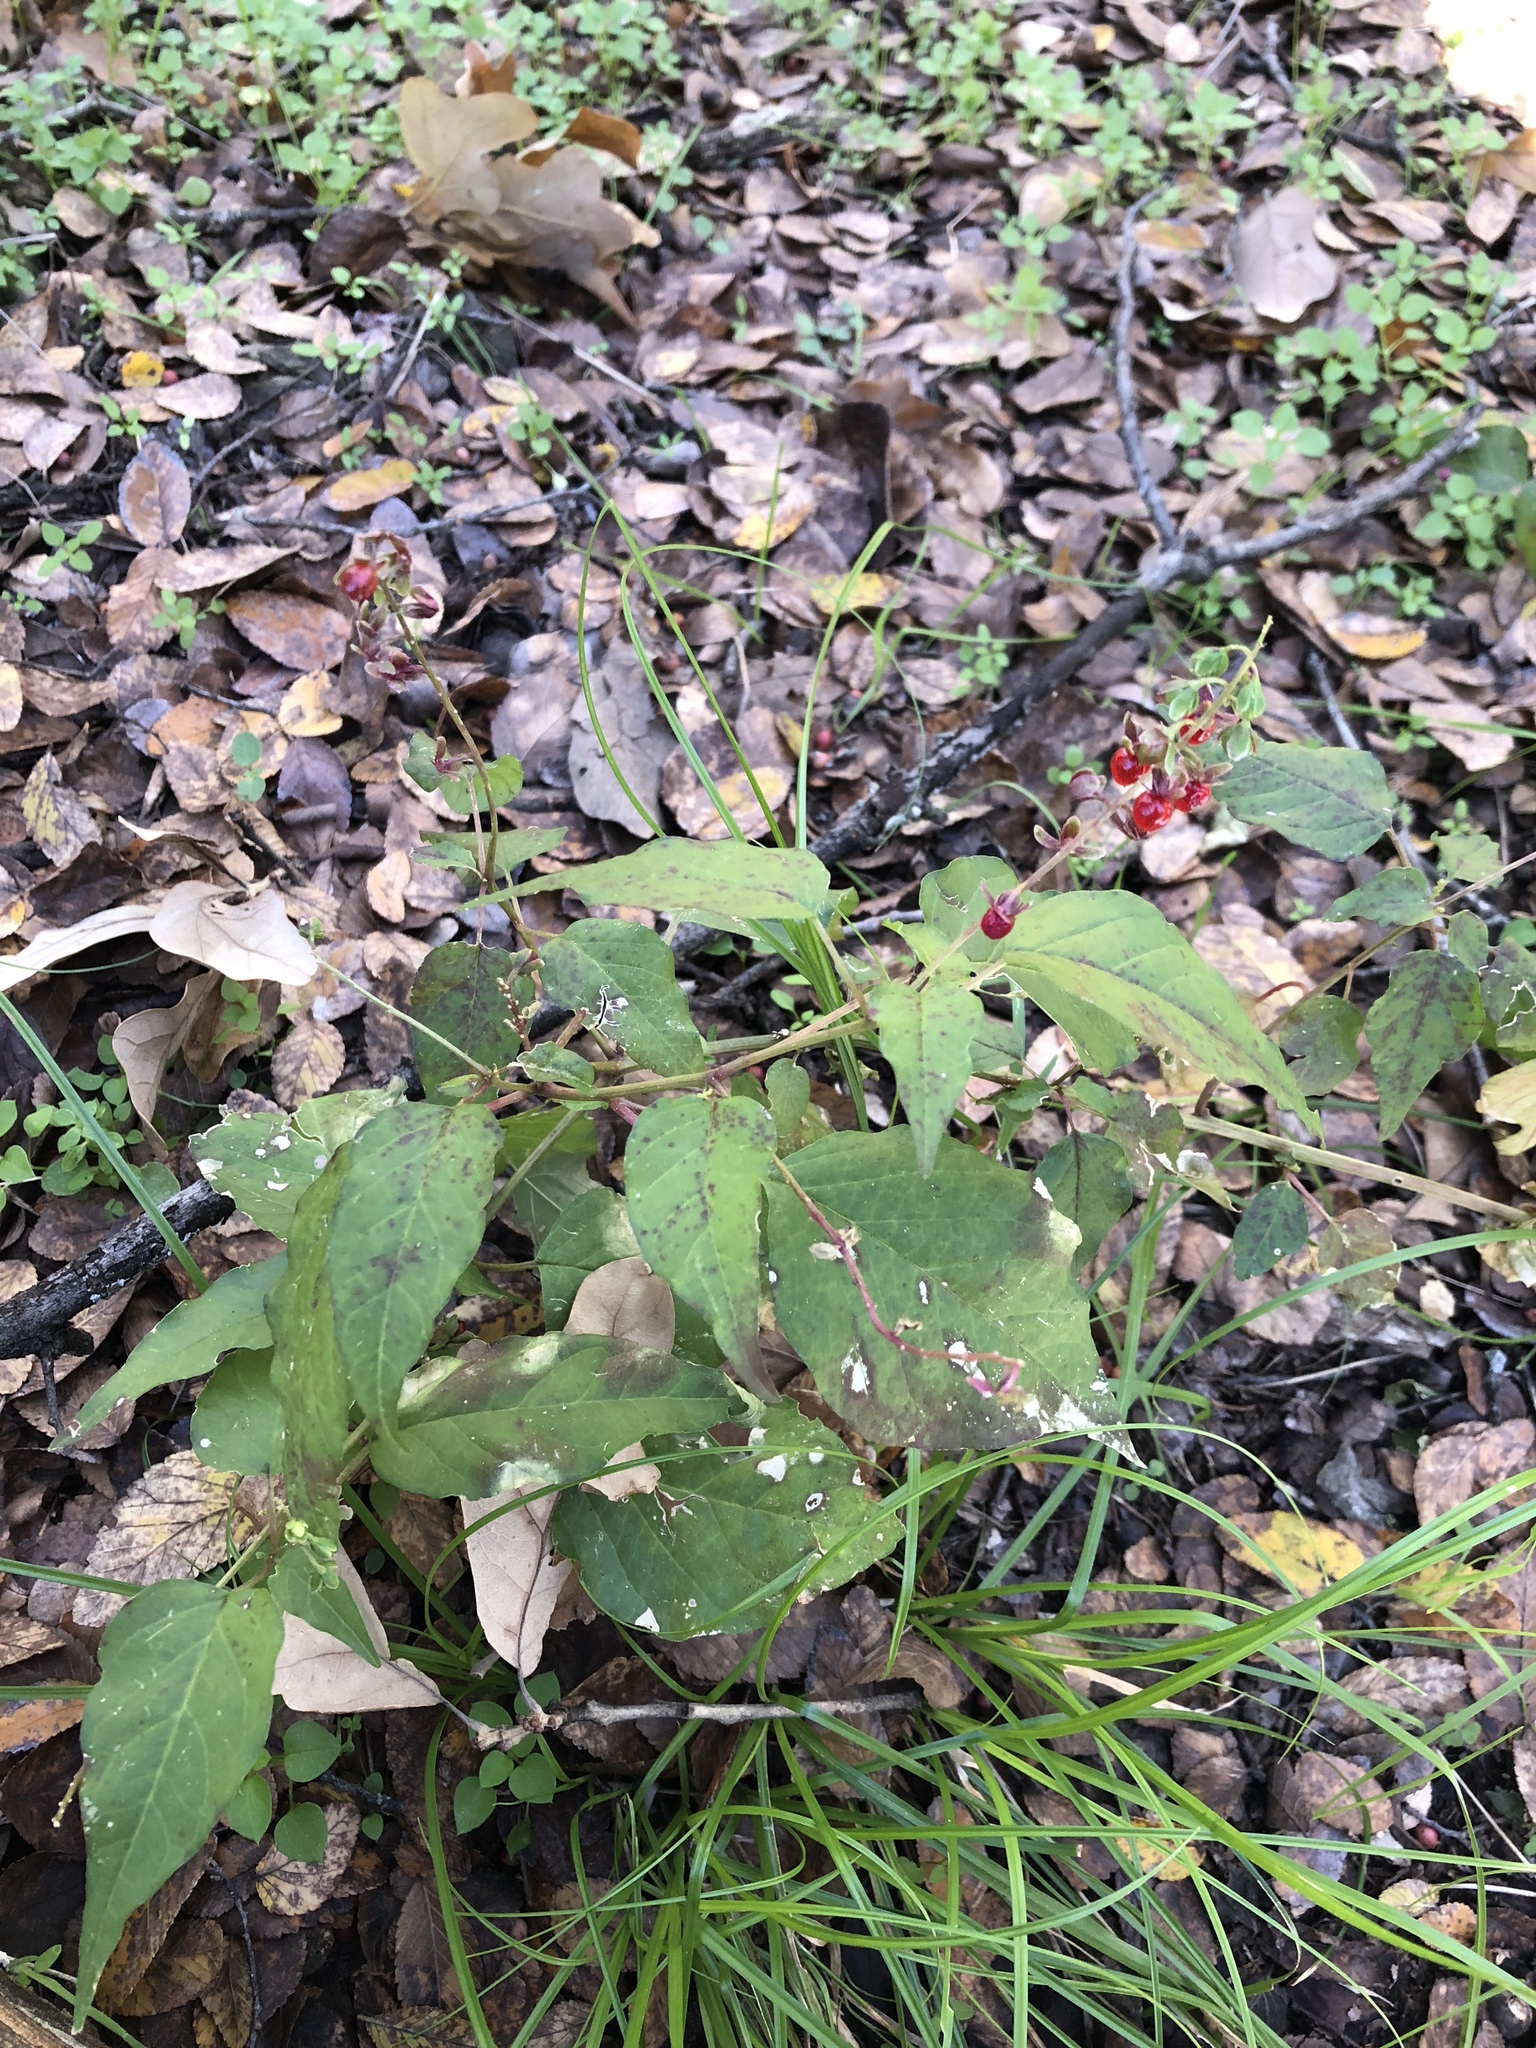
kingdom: Plantae
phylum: Tracheophyta
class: Magnoliopsida
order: Caryophyllales
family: Phytolaccaceae
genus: Rivina
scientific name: Rivina humilis
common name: Rougeplant
